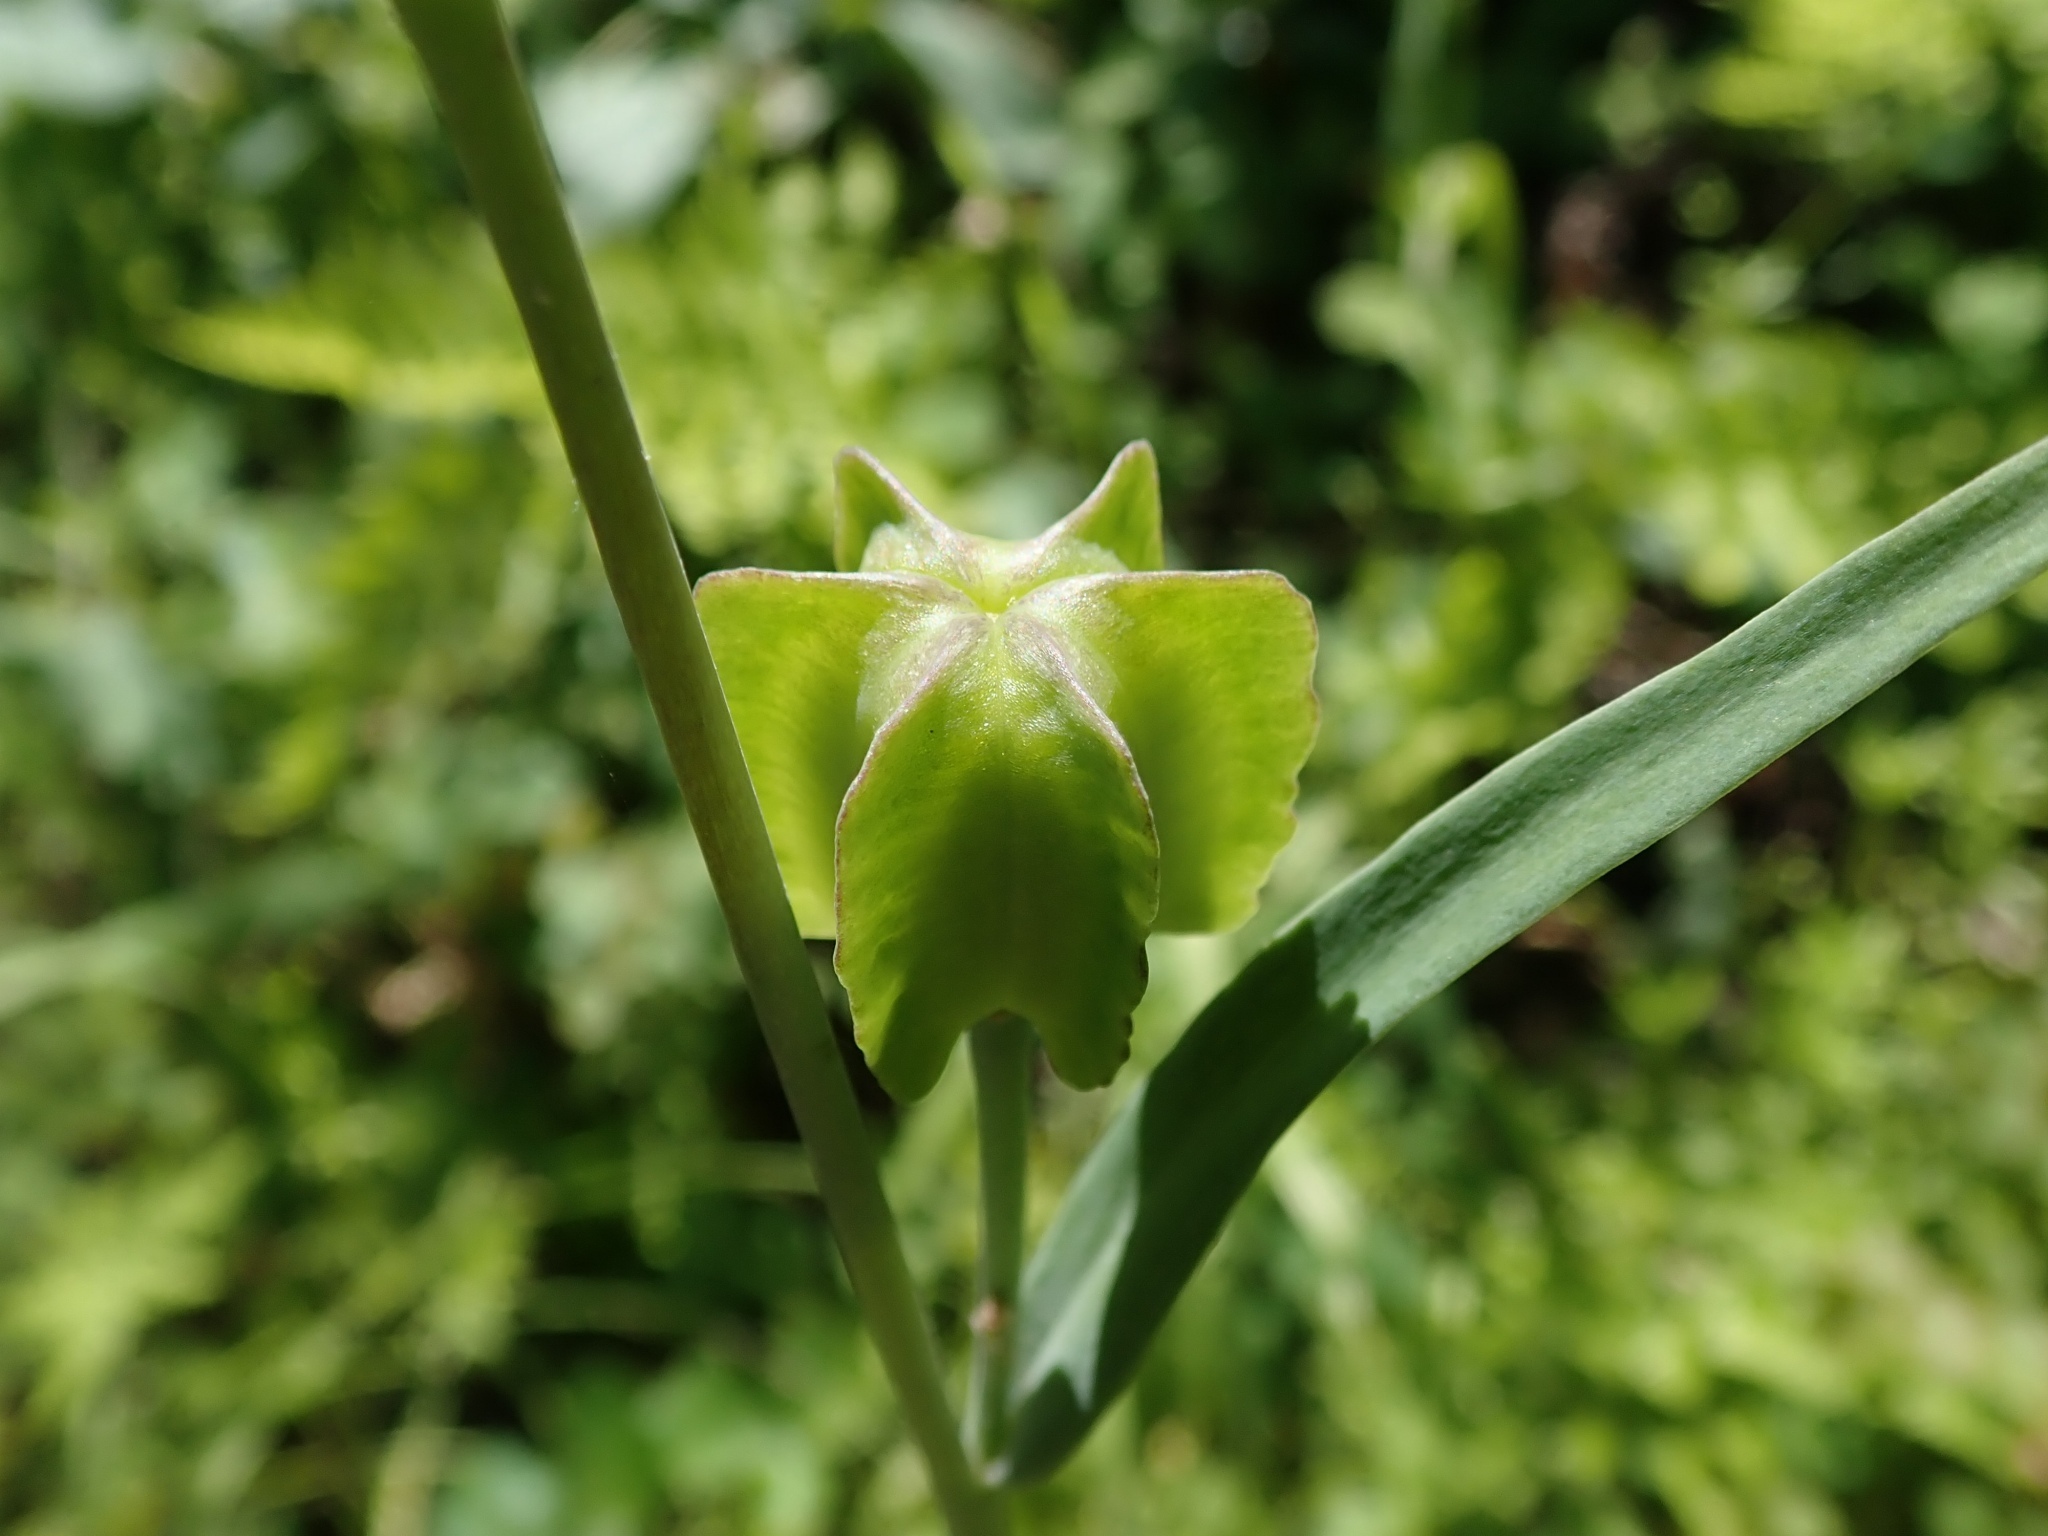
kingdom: Plantae
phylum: Tracheophyta
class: Liliopsida
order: Liliales
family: Liliaceae
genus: Fritillaria
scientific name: Fritillaria affinis
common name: Ojai fritillary
